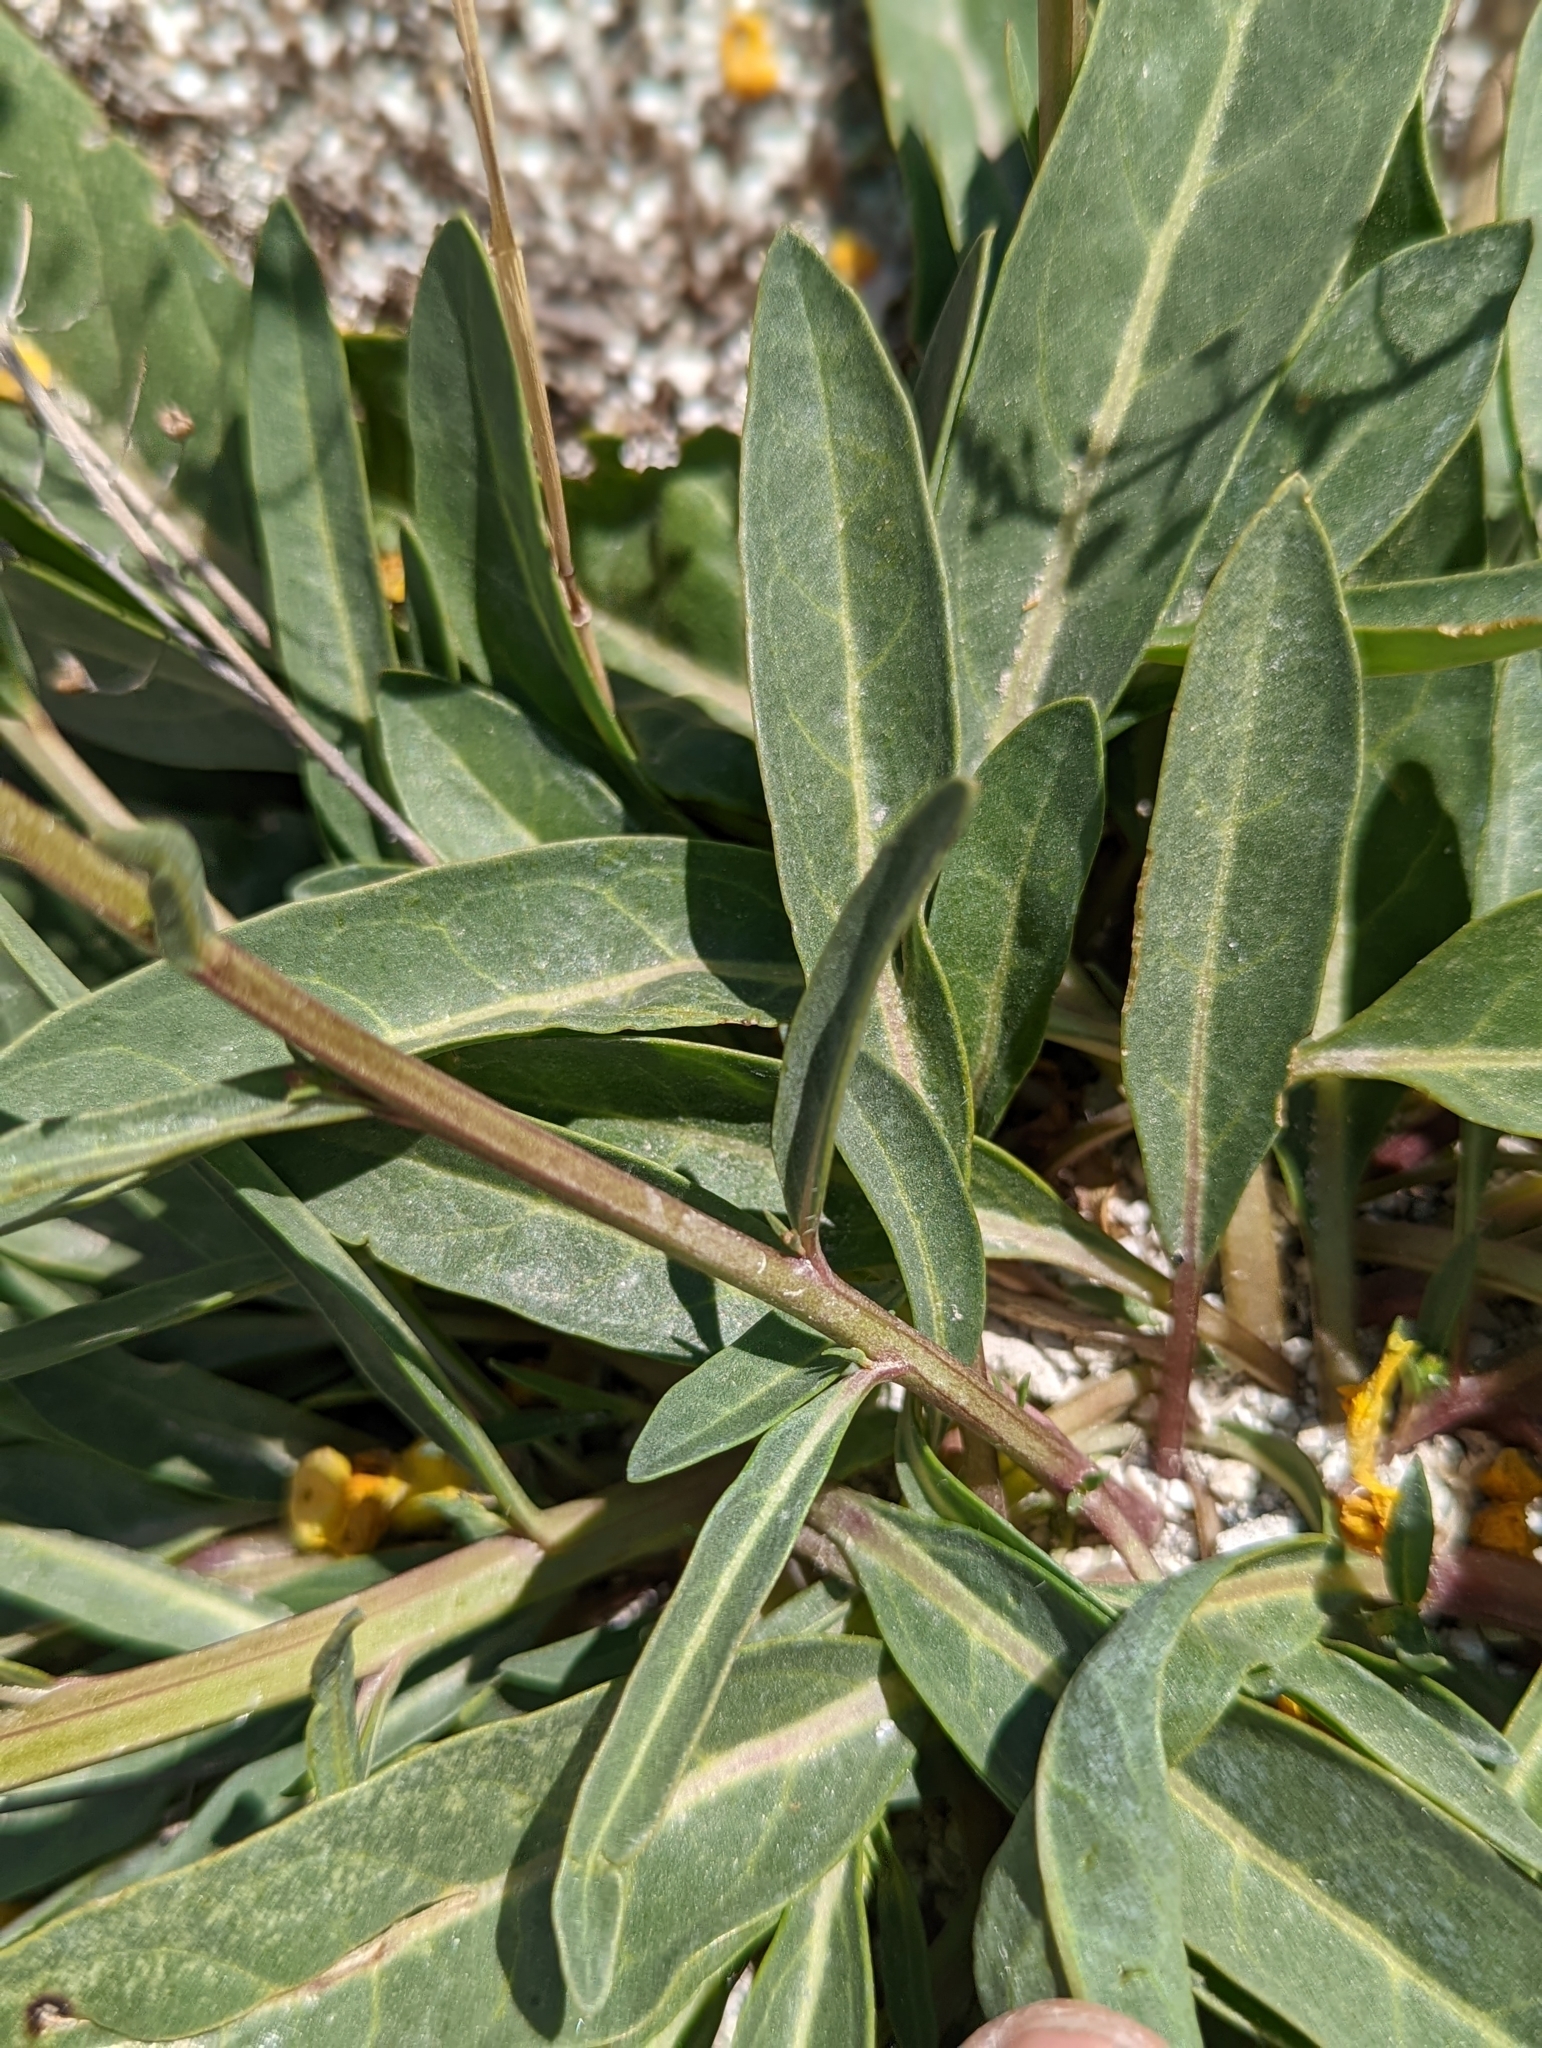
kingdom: Plantae
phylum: Tracheophyta
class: Magnoliopsida
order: Lamiales
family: Scrophulariaceae
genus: Verbascum
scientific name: Verbascum pyroliforme
